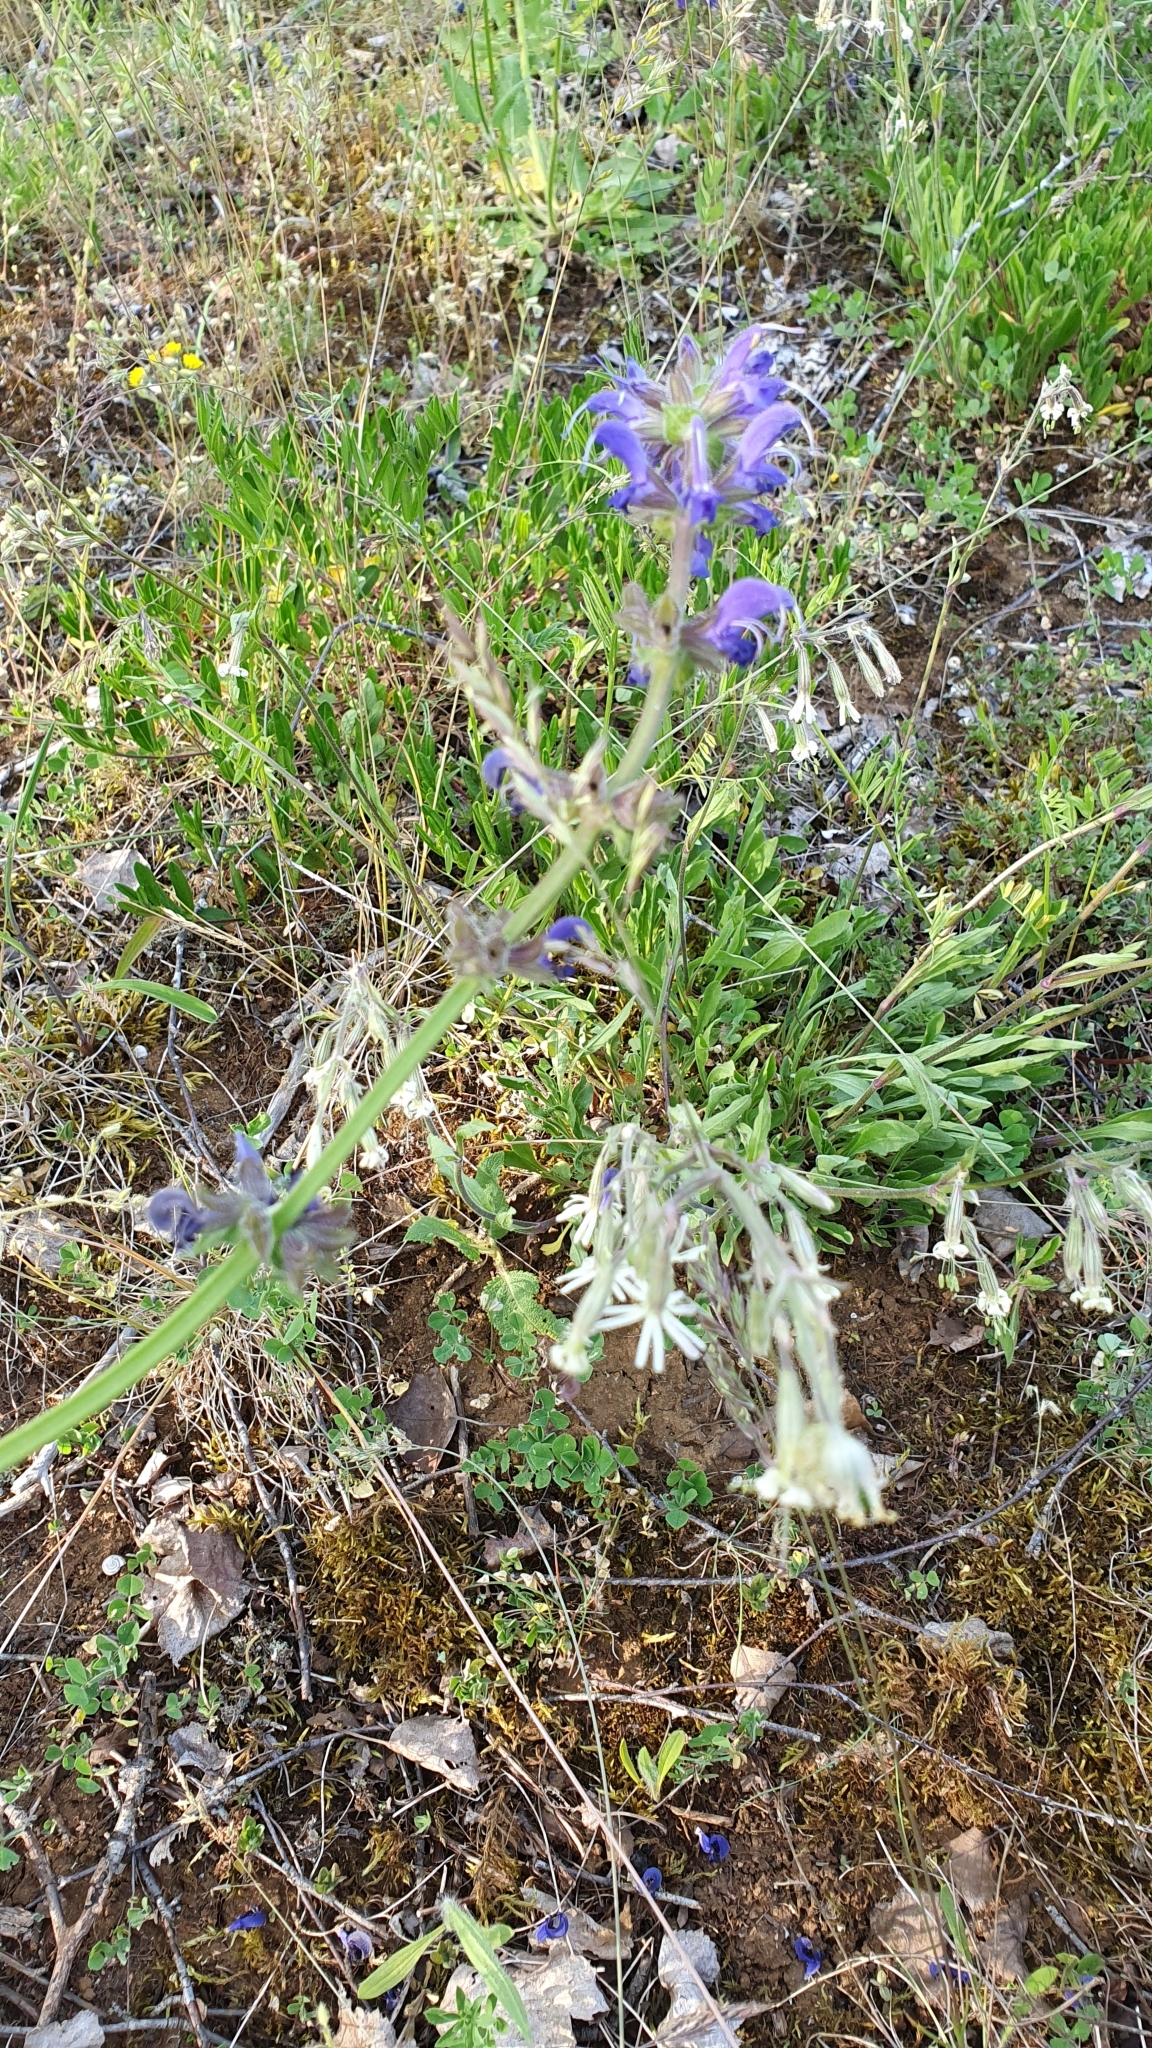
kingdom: Plantae
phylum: Tracheophyta
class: Magnoliopsida
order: Lamiales
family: Lamiaceae
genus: Salvia
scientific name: Salvia pratensis
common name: Meadow sage
